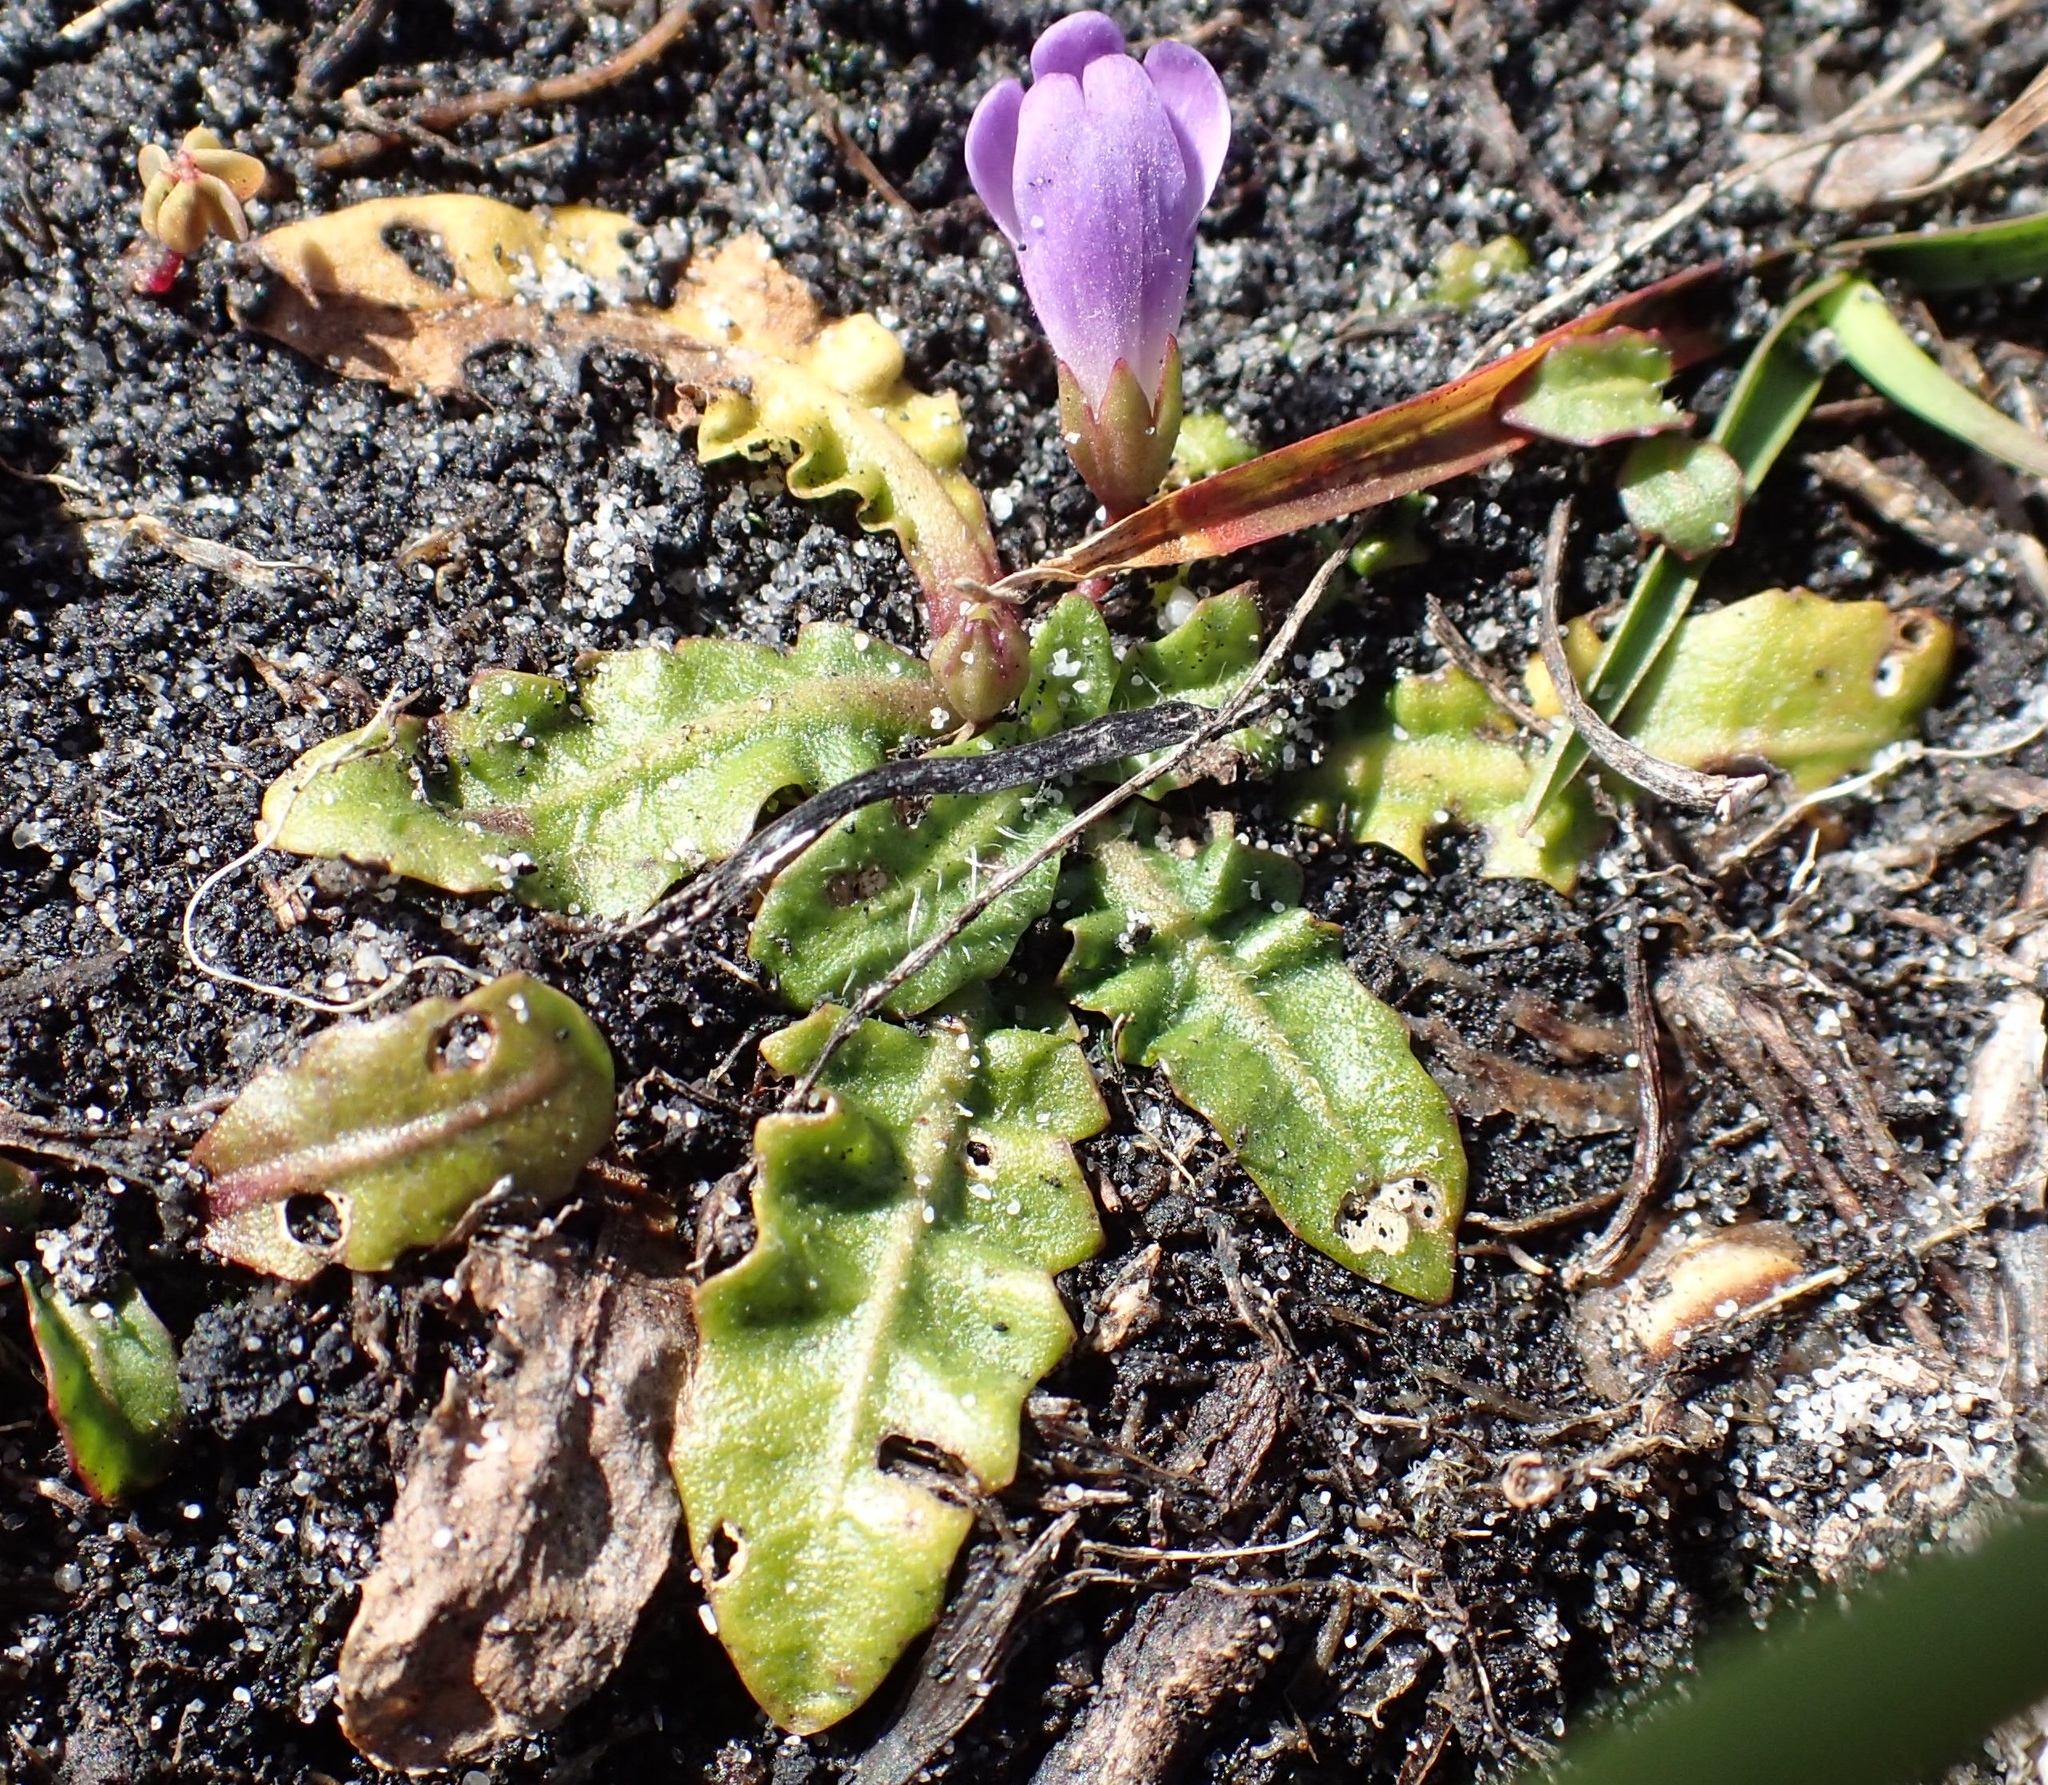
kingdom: Plantae
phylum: Tracheophyta
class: Magnoliopsida
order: Lamiales
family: Mazaceae
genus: Mazus
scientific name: Mazus pumilio
